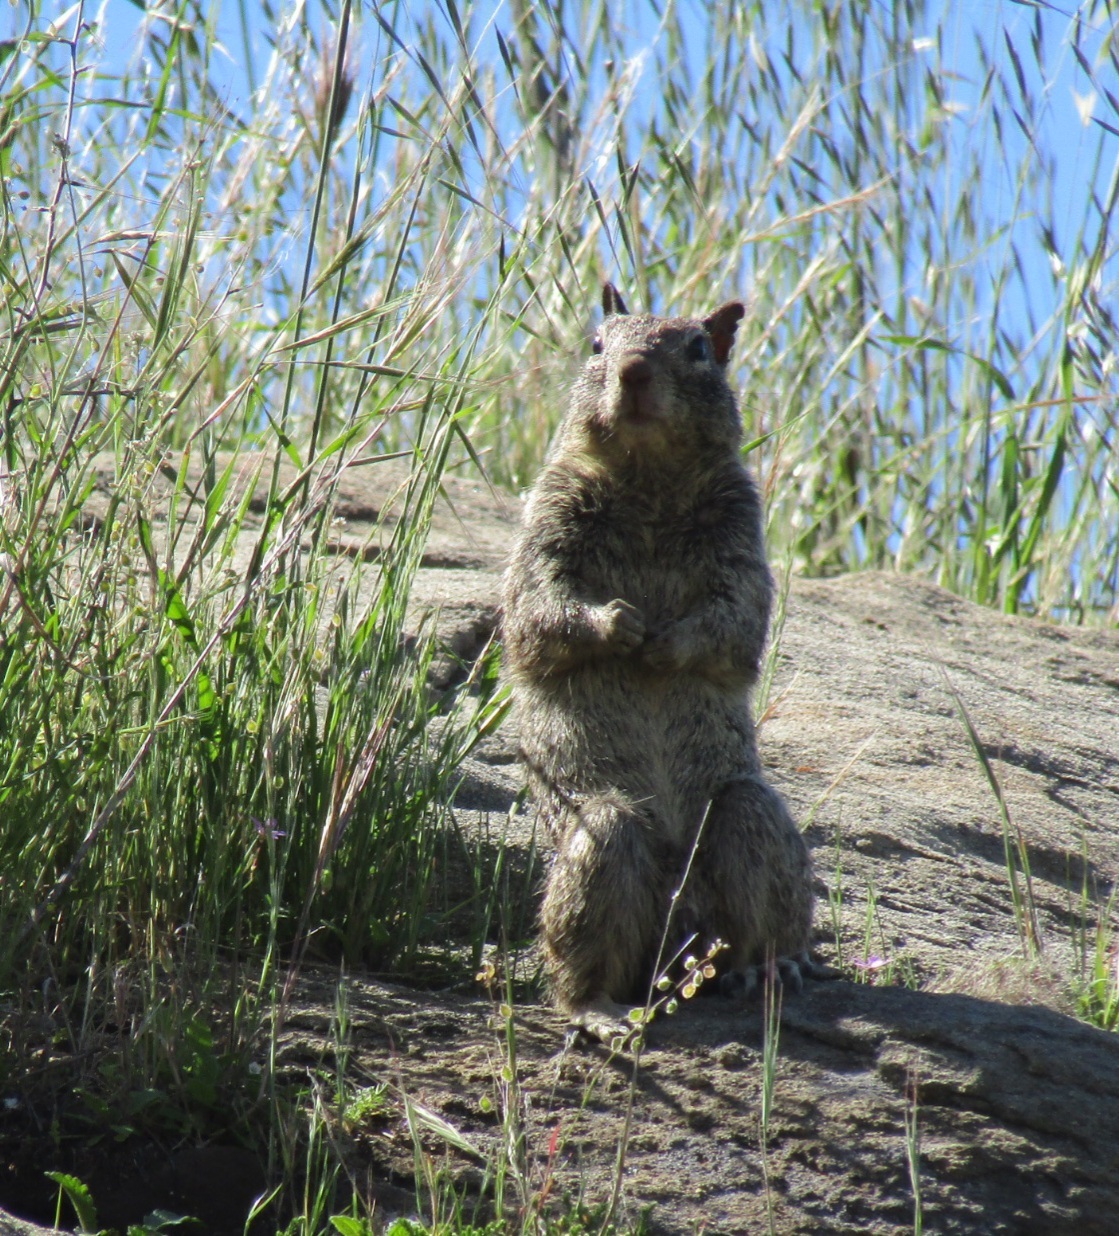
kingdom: Animalia
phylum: Chordata
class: Mammalia
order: Rodentia
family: Sciuridae
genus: Otospermophilus
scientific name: Otospermophilus beecheyi
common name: California ground squirrel
